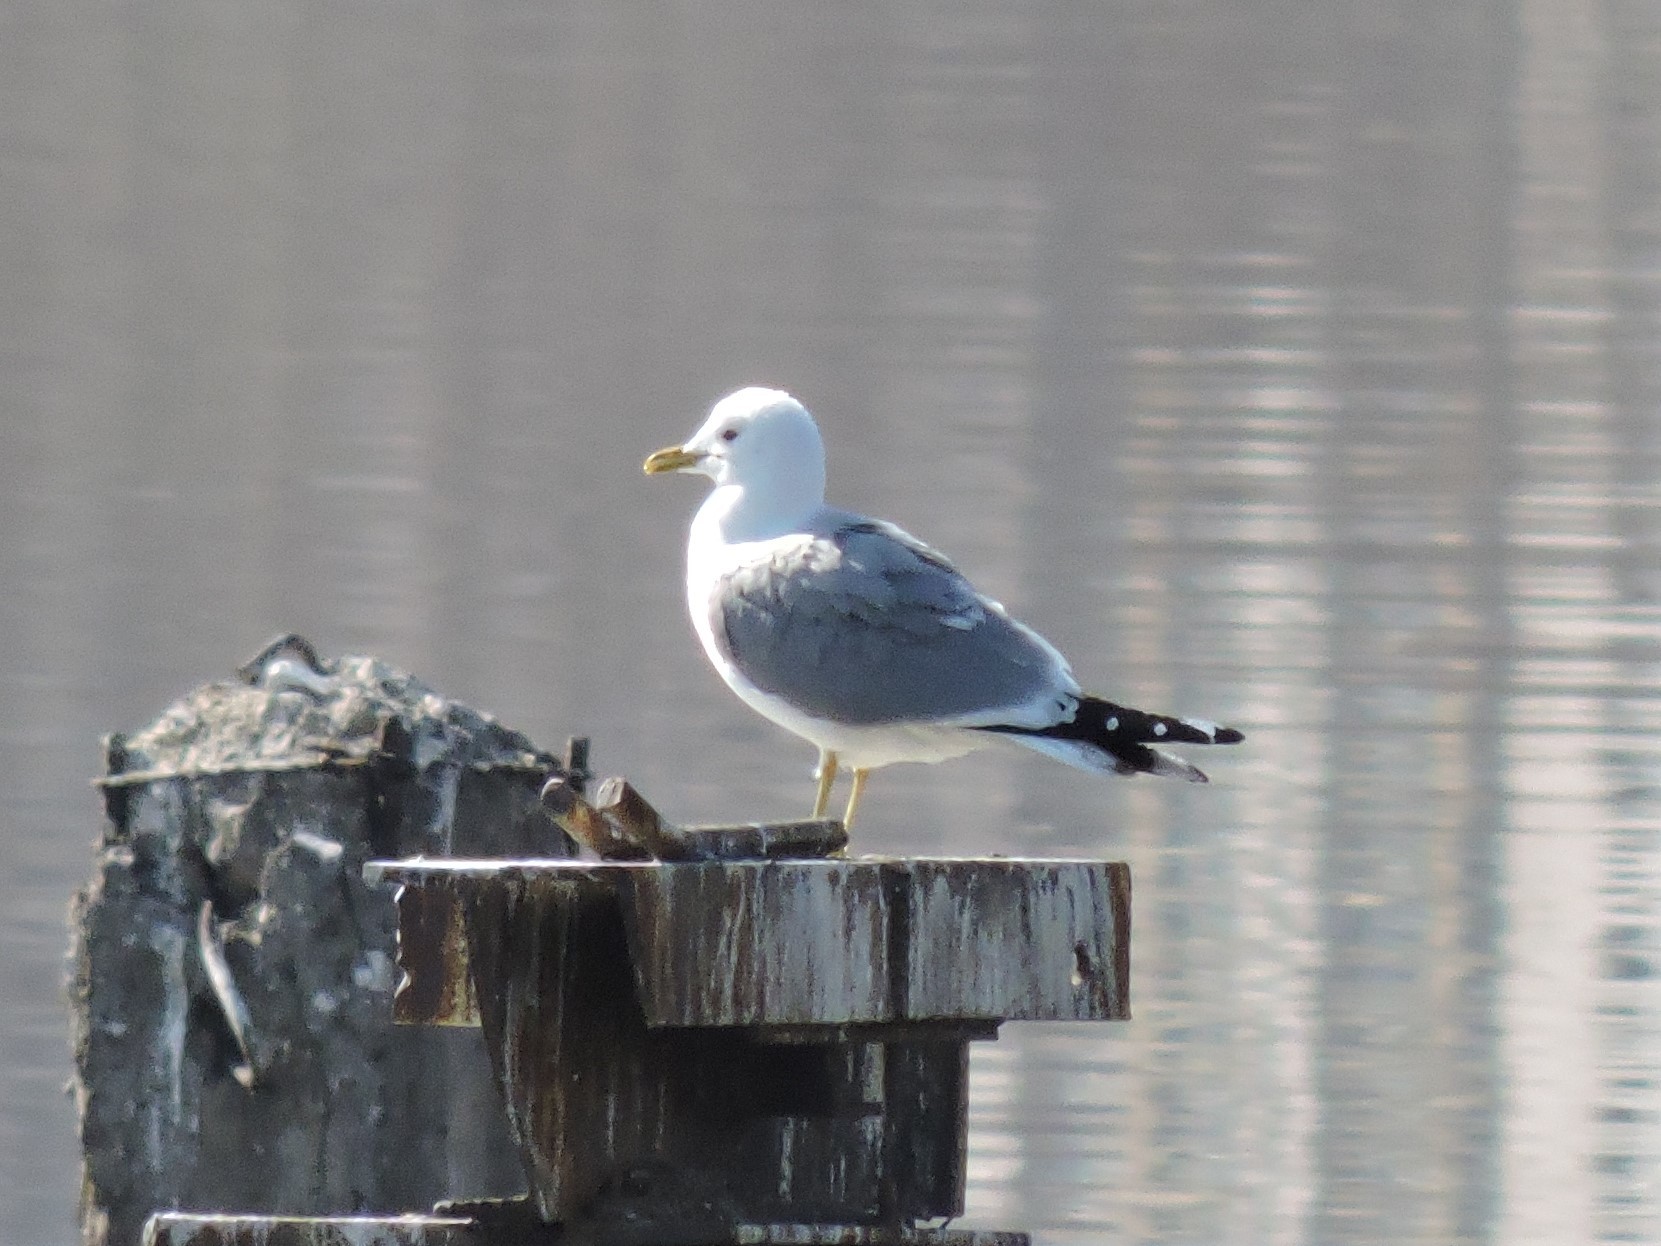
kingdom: Animalia
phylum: Chordata
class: Aves
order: Charadriiformes
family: Laridae
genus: Larus
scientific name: Larus canus
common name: Mew gull
